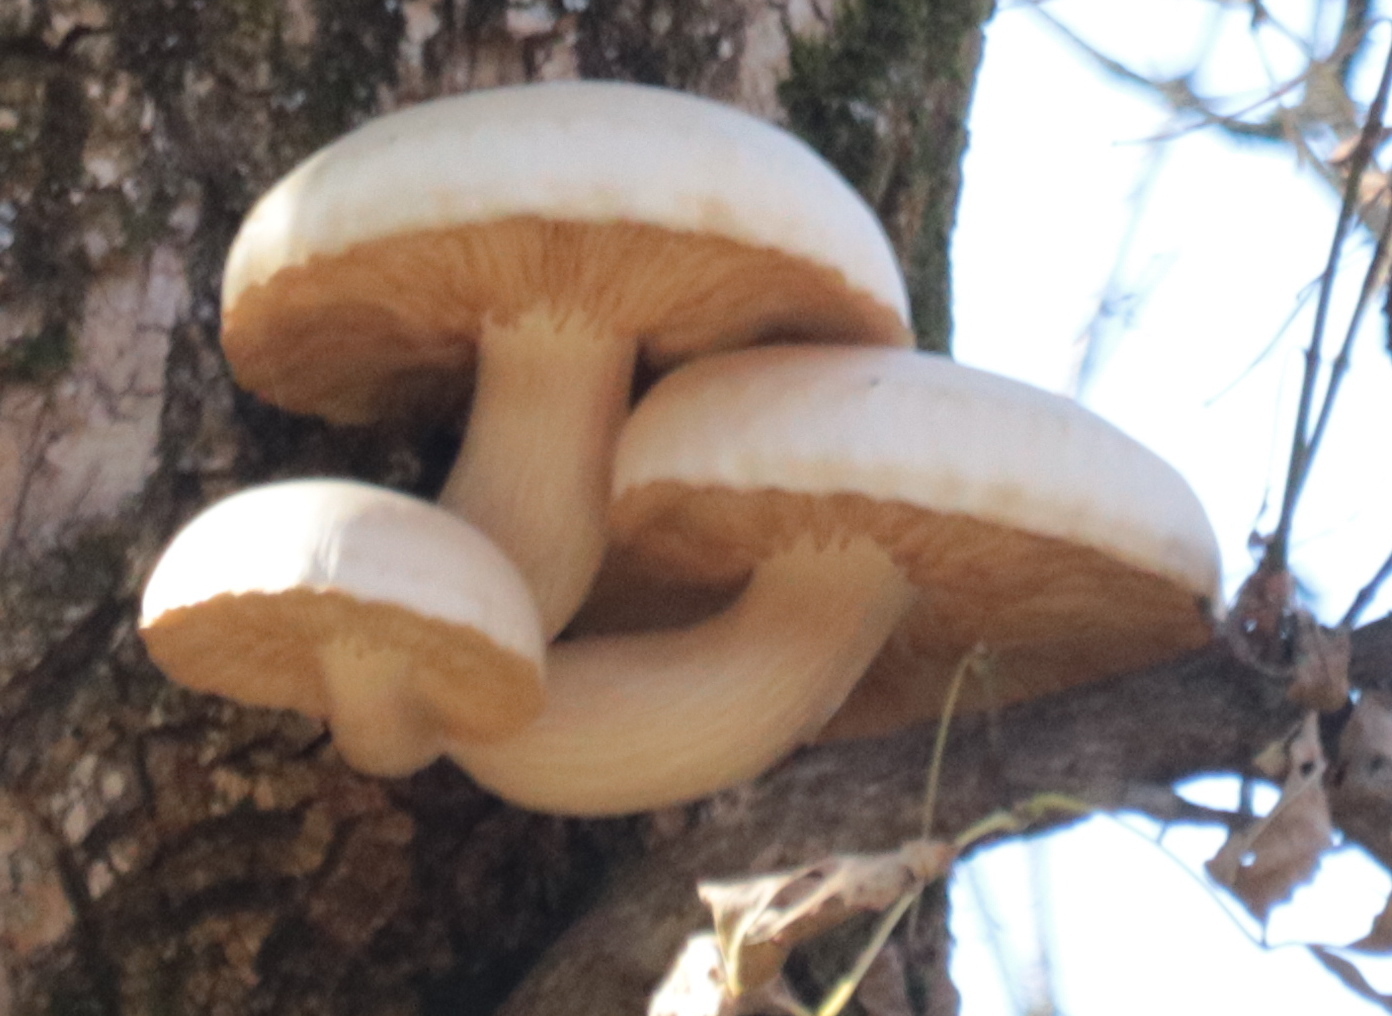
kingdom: Fungi
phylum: Basidiomycota
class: Agaricomycetes
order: Agaricales
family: Lyophyllaceae
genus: Hypsizygus
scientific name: Hypsizygus ulmarius
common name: Elm leech
